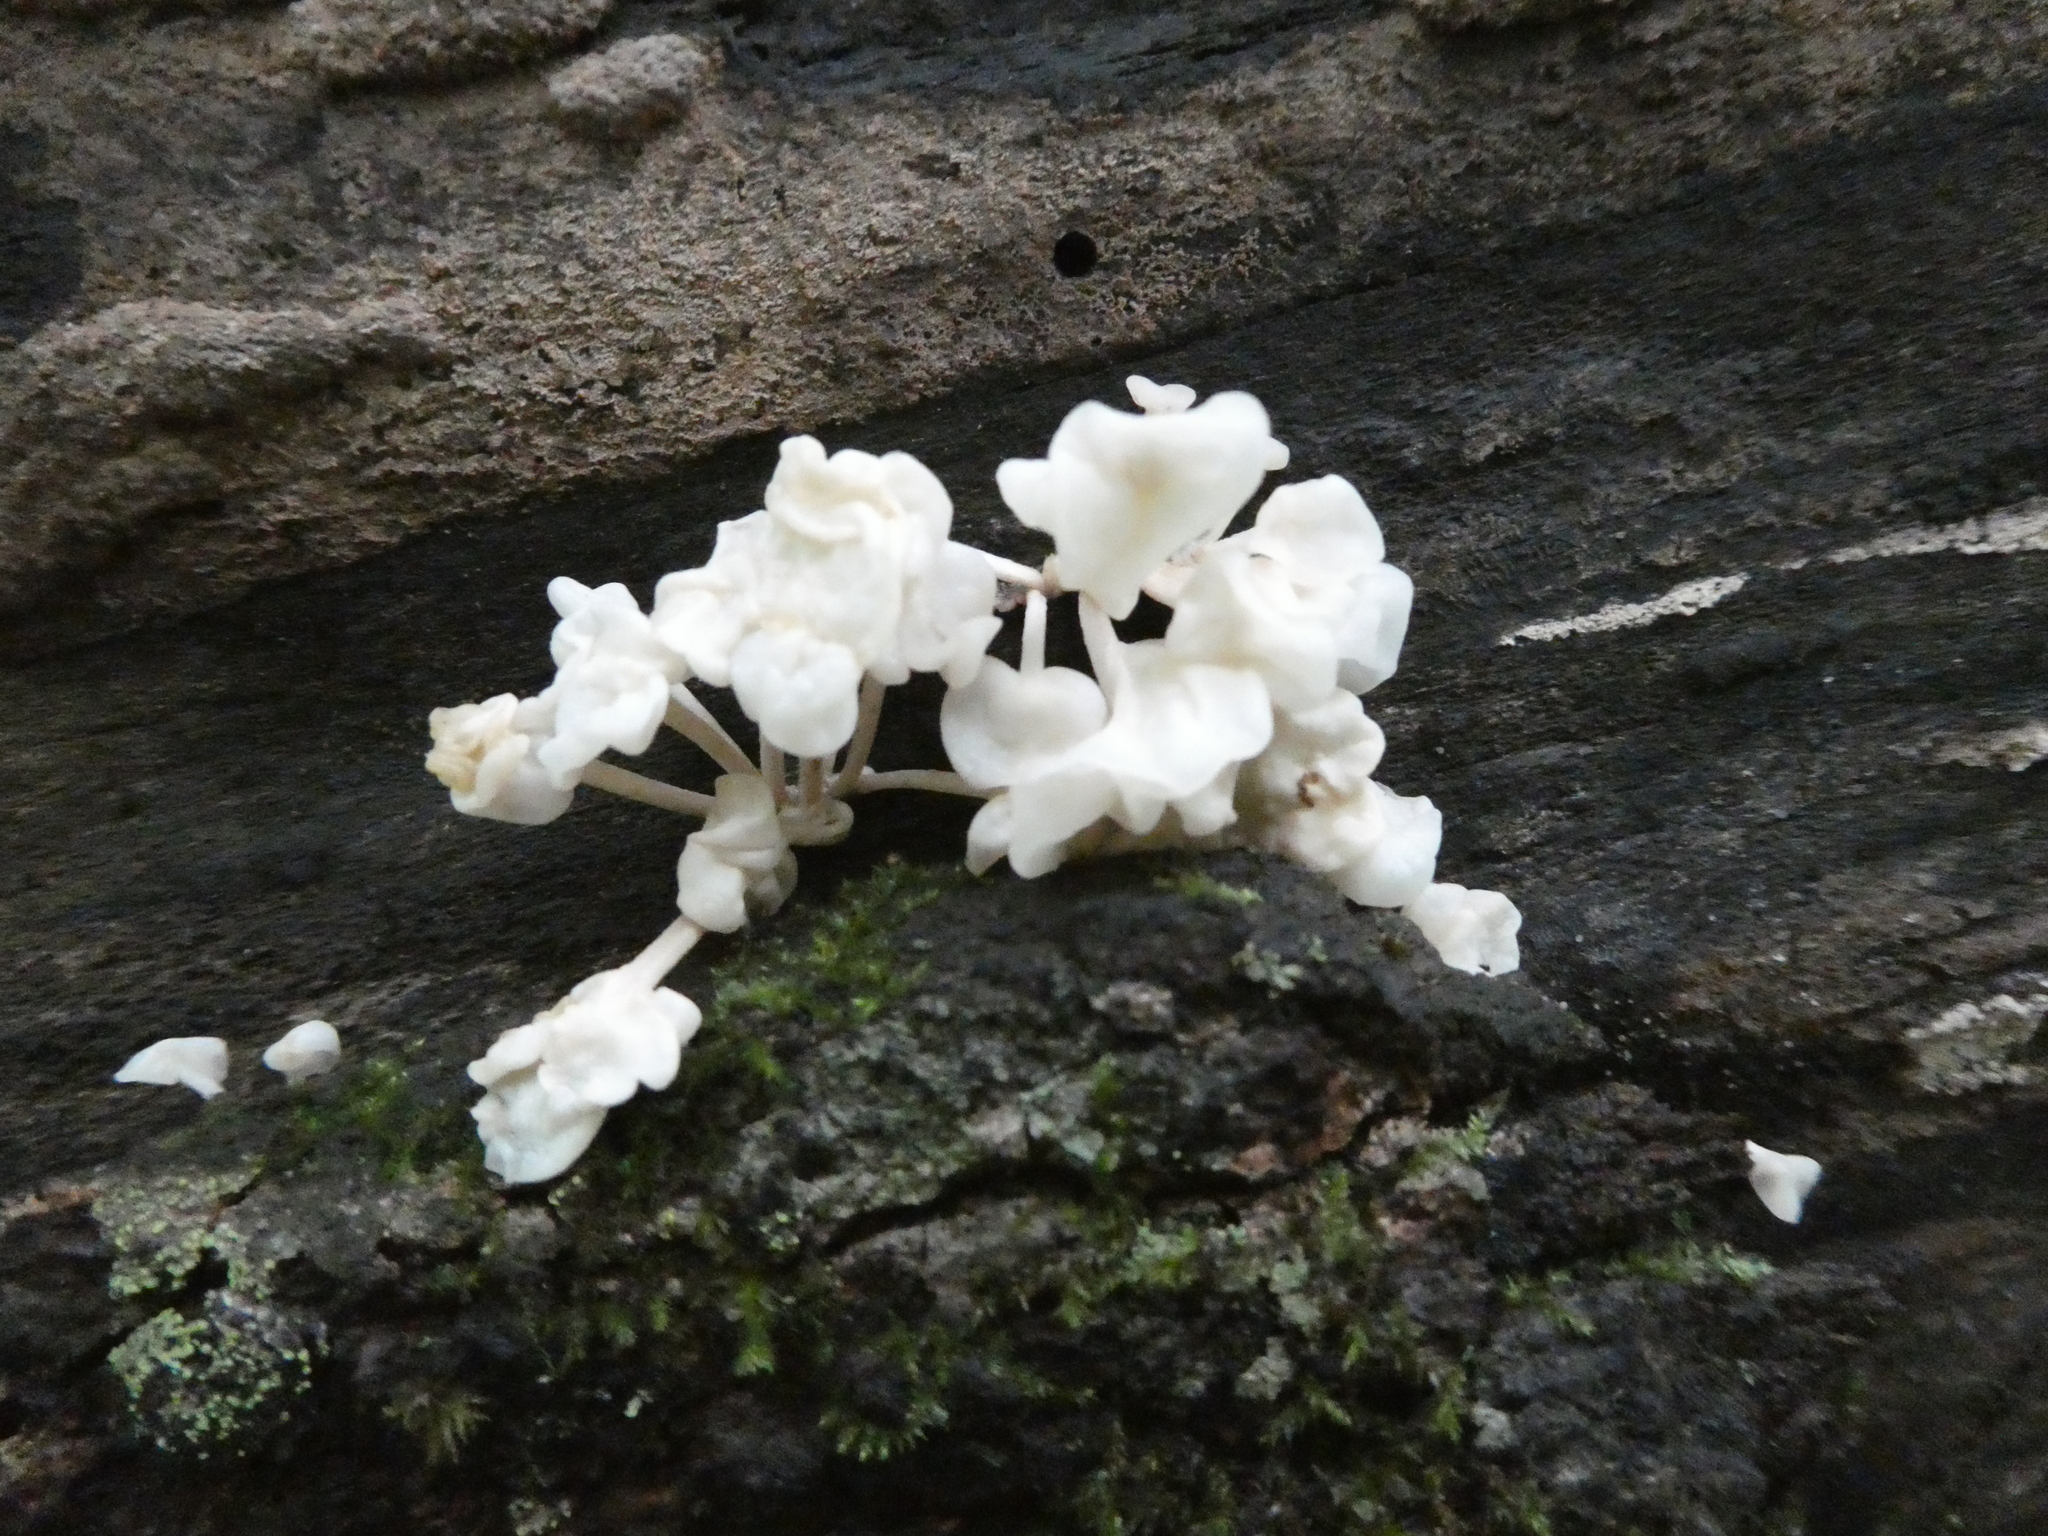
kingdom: Fungi
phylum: Basidiomycota
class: Agaricomycetes
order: Agaricales
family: Physalacriaceae
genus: Physalacria
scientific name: Physalacria inflata
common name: Bladder stalks
